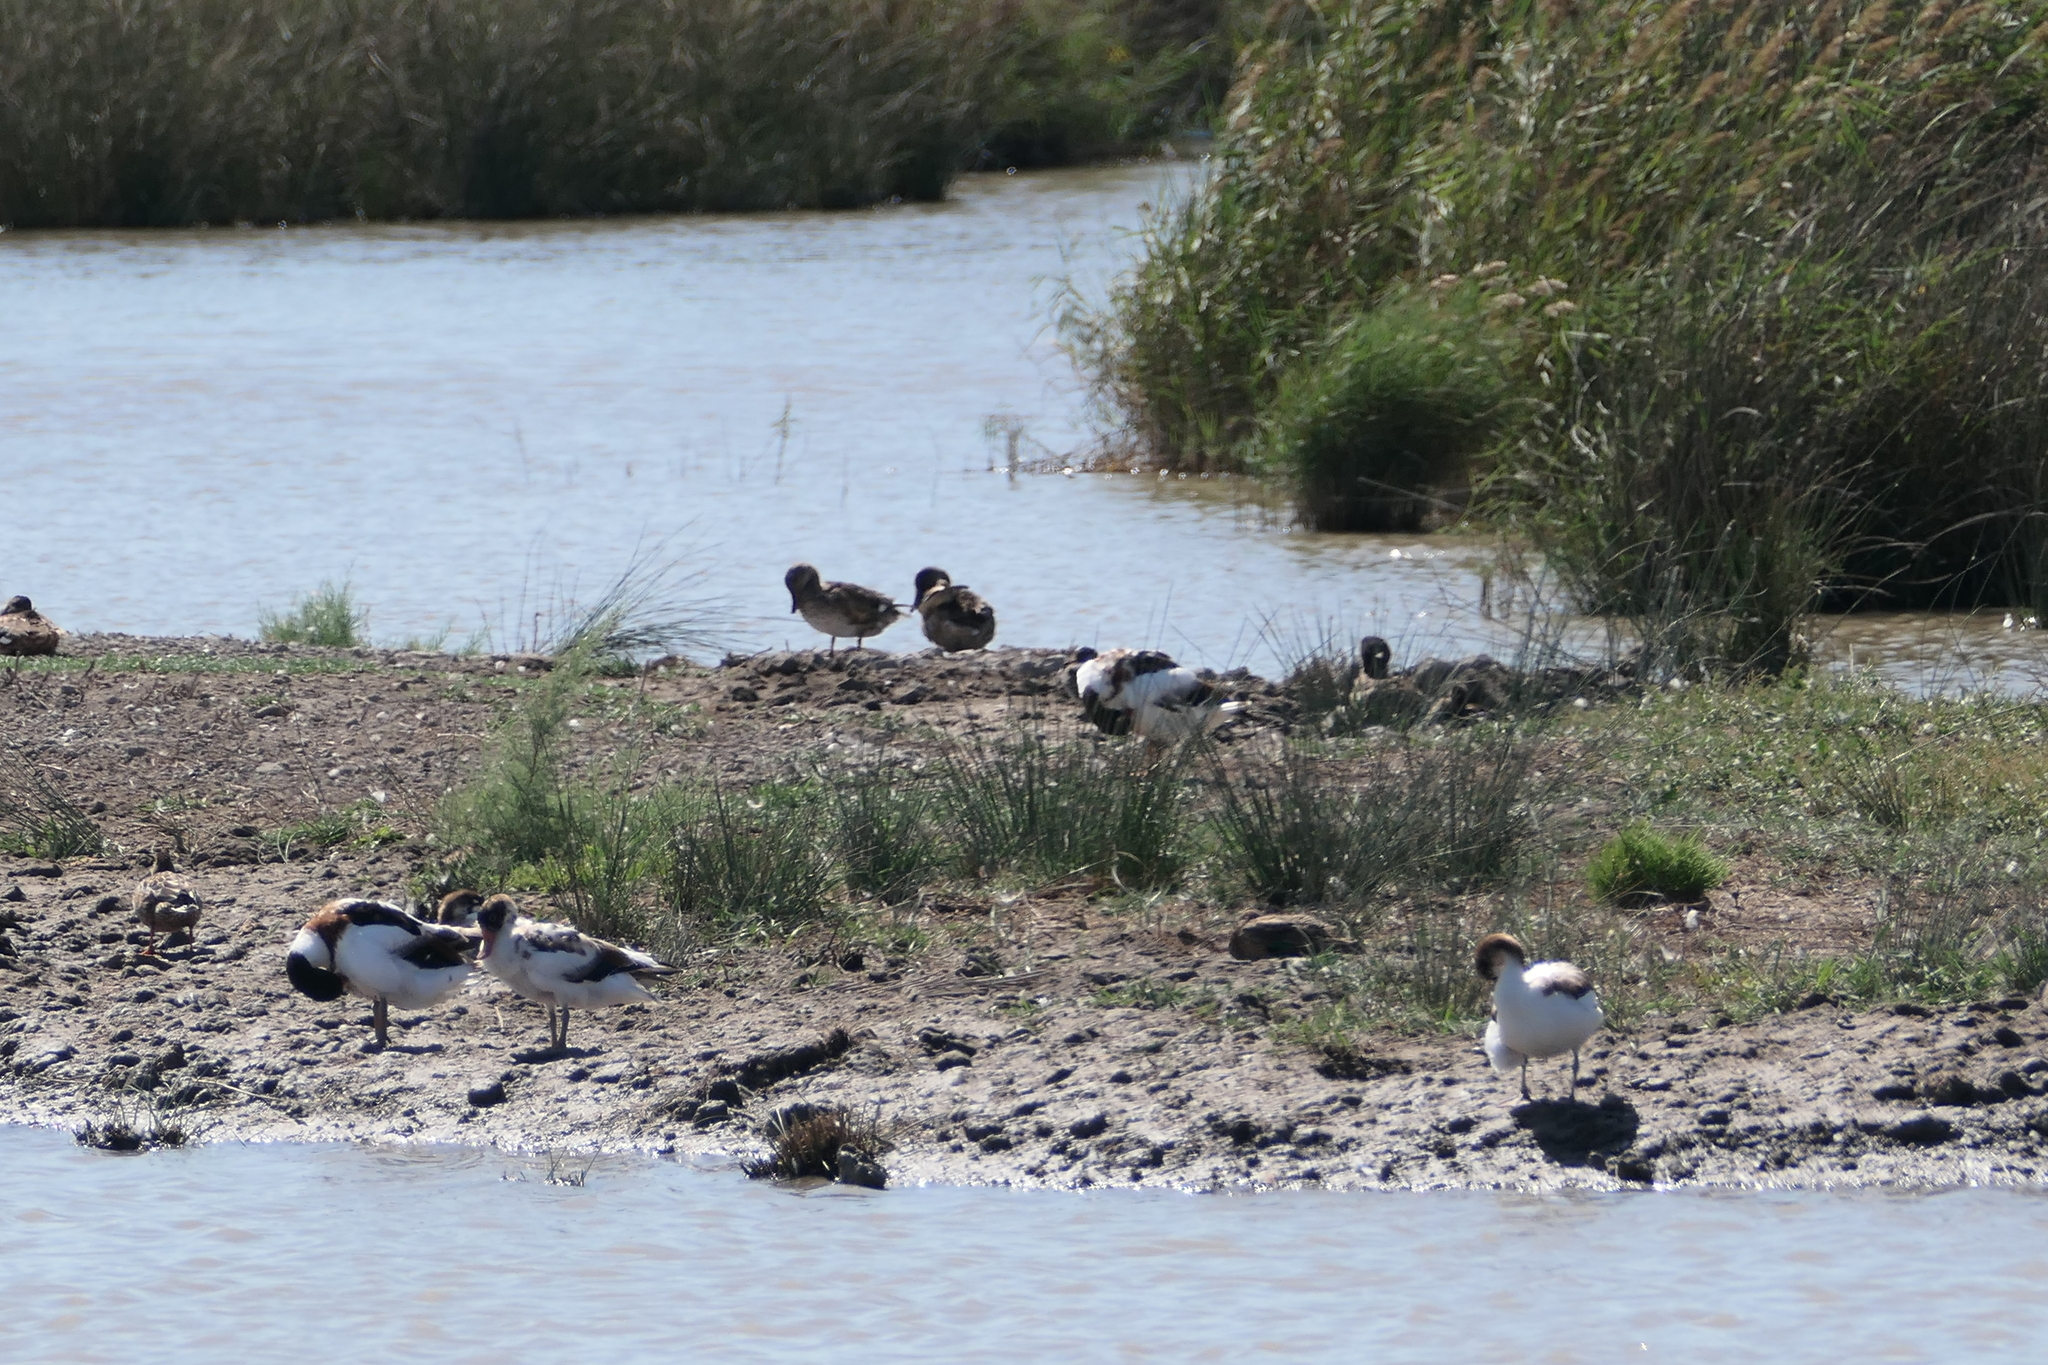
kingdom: Animalia
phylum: Chordata
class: Aves
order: Anseriformes
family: Anatidae
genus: Tadorna
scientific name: Tadorna tadorna
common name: Common shelduck
